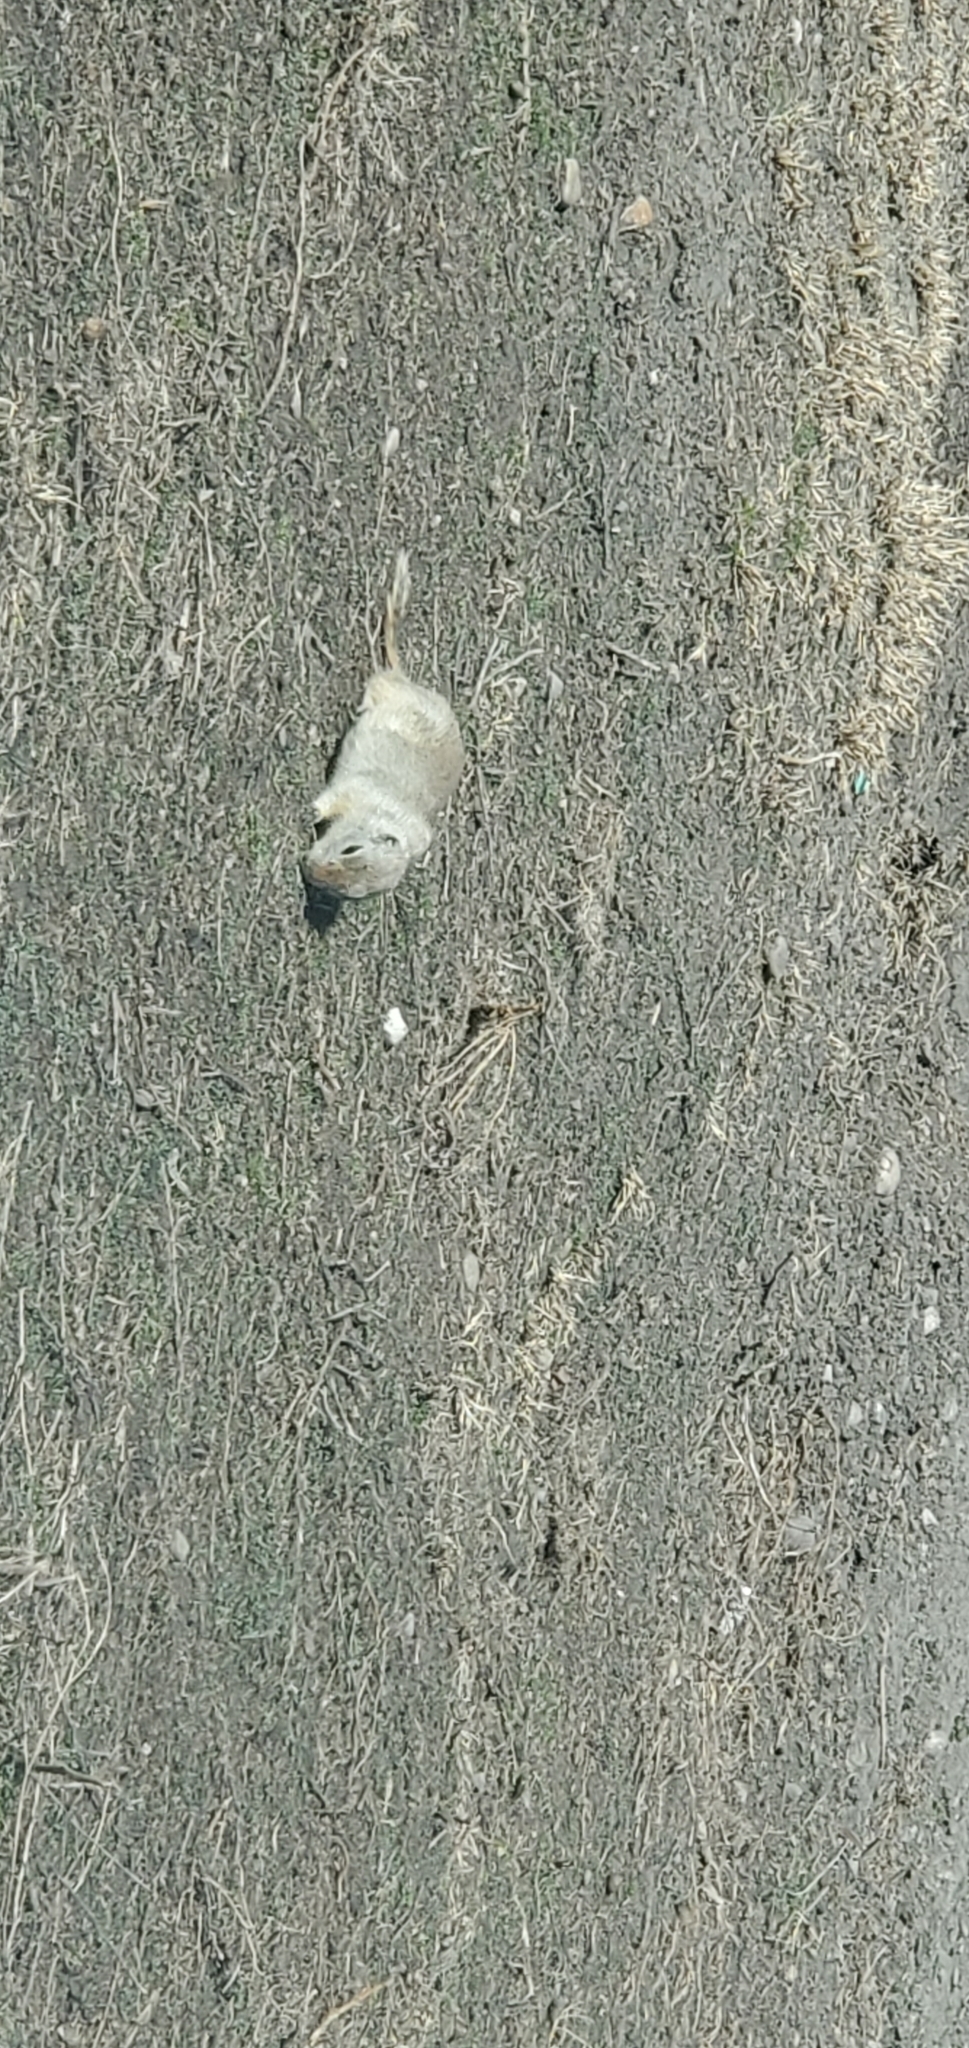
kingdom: Animalia
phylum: Chordata
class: Mammalia
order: Rodentia
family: Sciuridae
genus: Urocitellus
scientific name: Urocitellus richardsonii
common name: Richardson's ground squirrel
